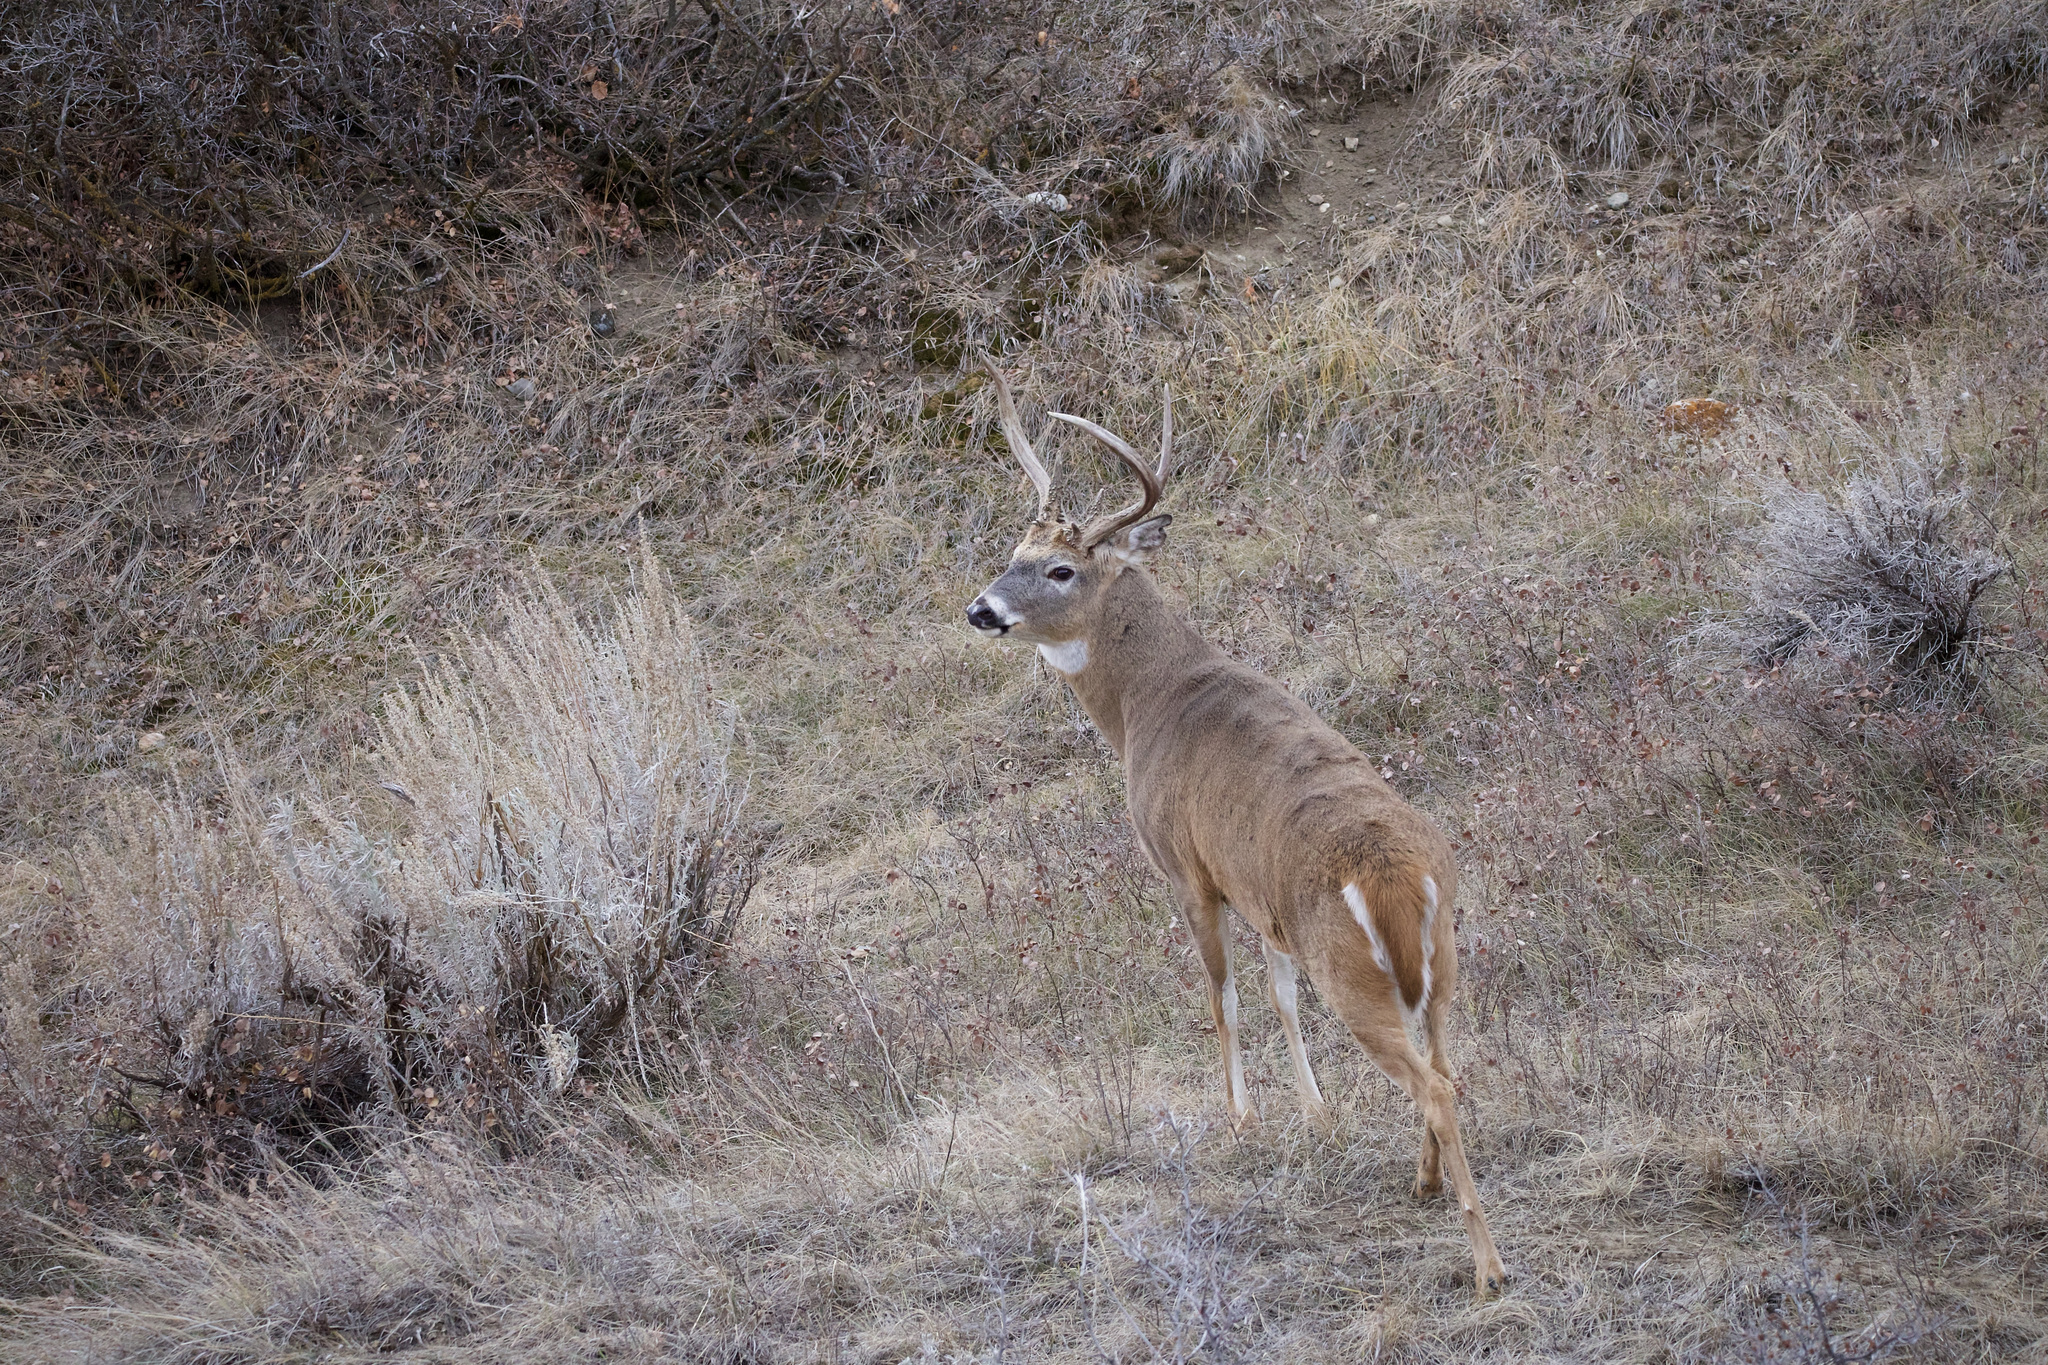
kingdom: Animalia
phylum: Chordata
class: Mammalia
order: Artiodactyla
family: Cervidae
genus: Odocoileus
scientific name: Odocoileus virginianus
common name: White-tailed deer
